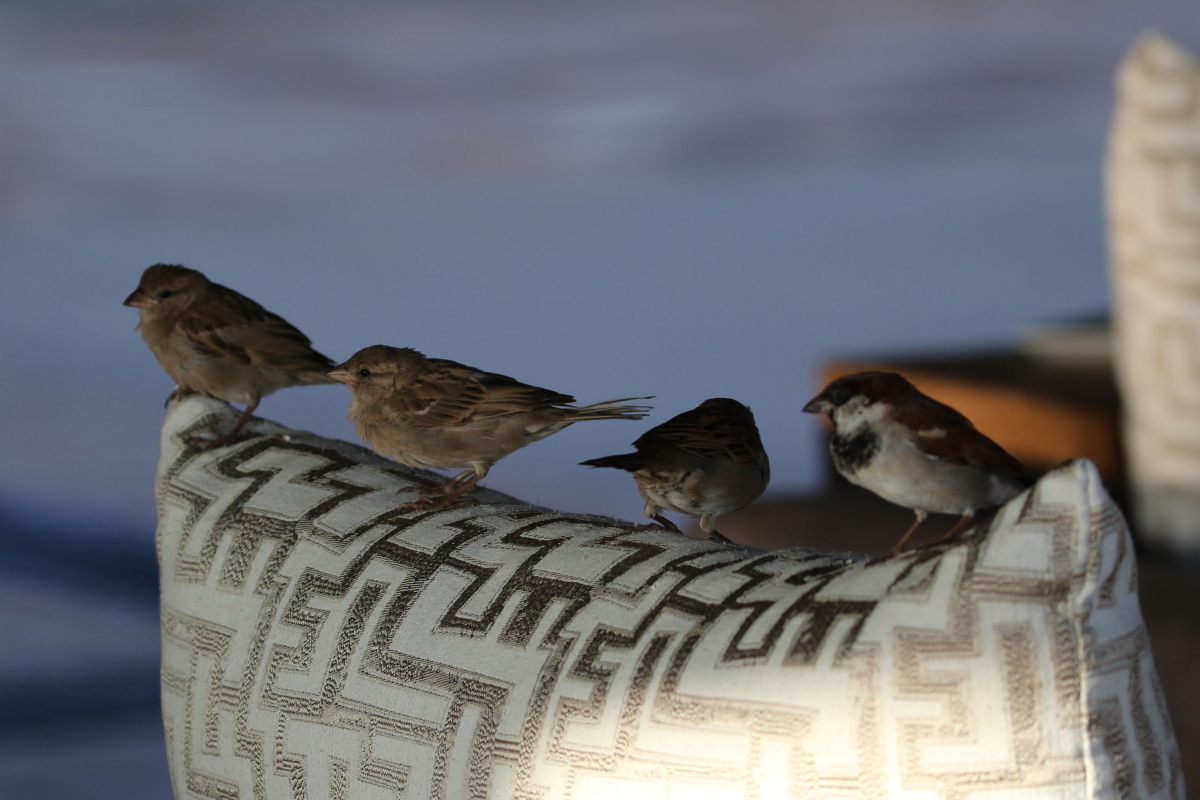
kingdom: Animalia
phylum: Chordata
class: Aves
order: Passeriformes
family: Passeridae
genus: Passer
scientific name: Passer domesticus
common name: House sparrow
